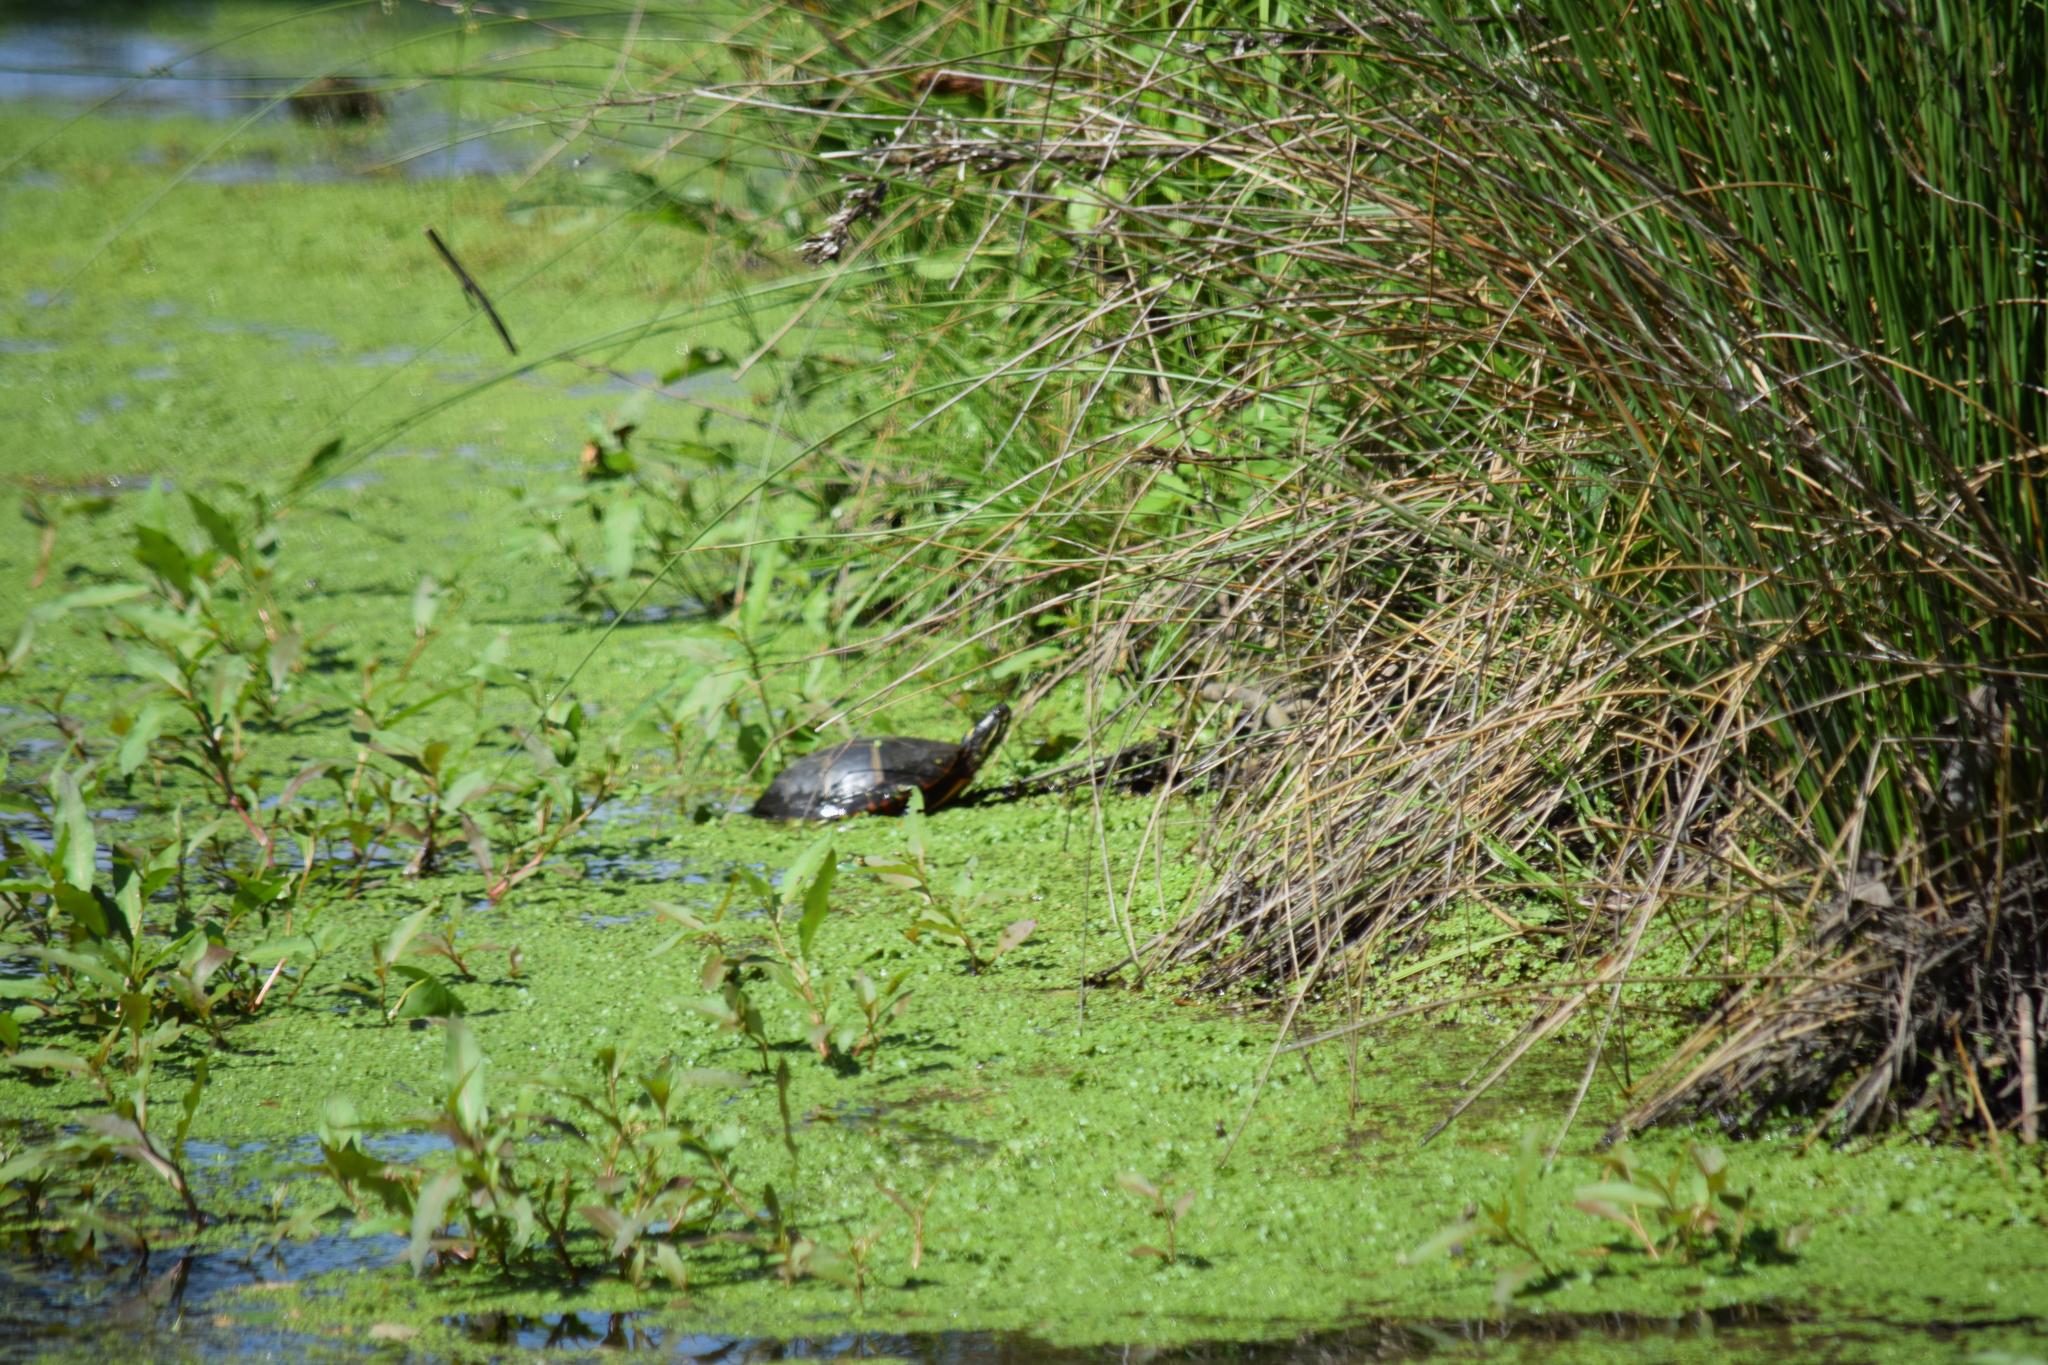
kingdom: Animalia
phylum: Chordata
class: Testudines
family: Emydidae
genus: Chrysemys
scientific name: Chrysemys picta
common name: Painted turtle
